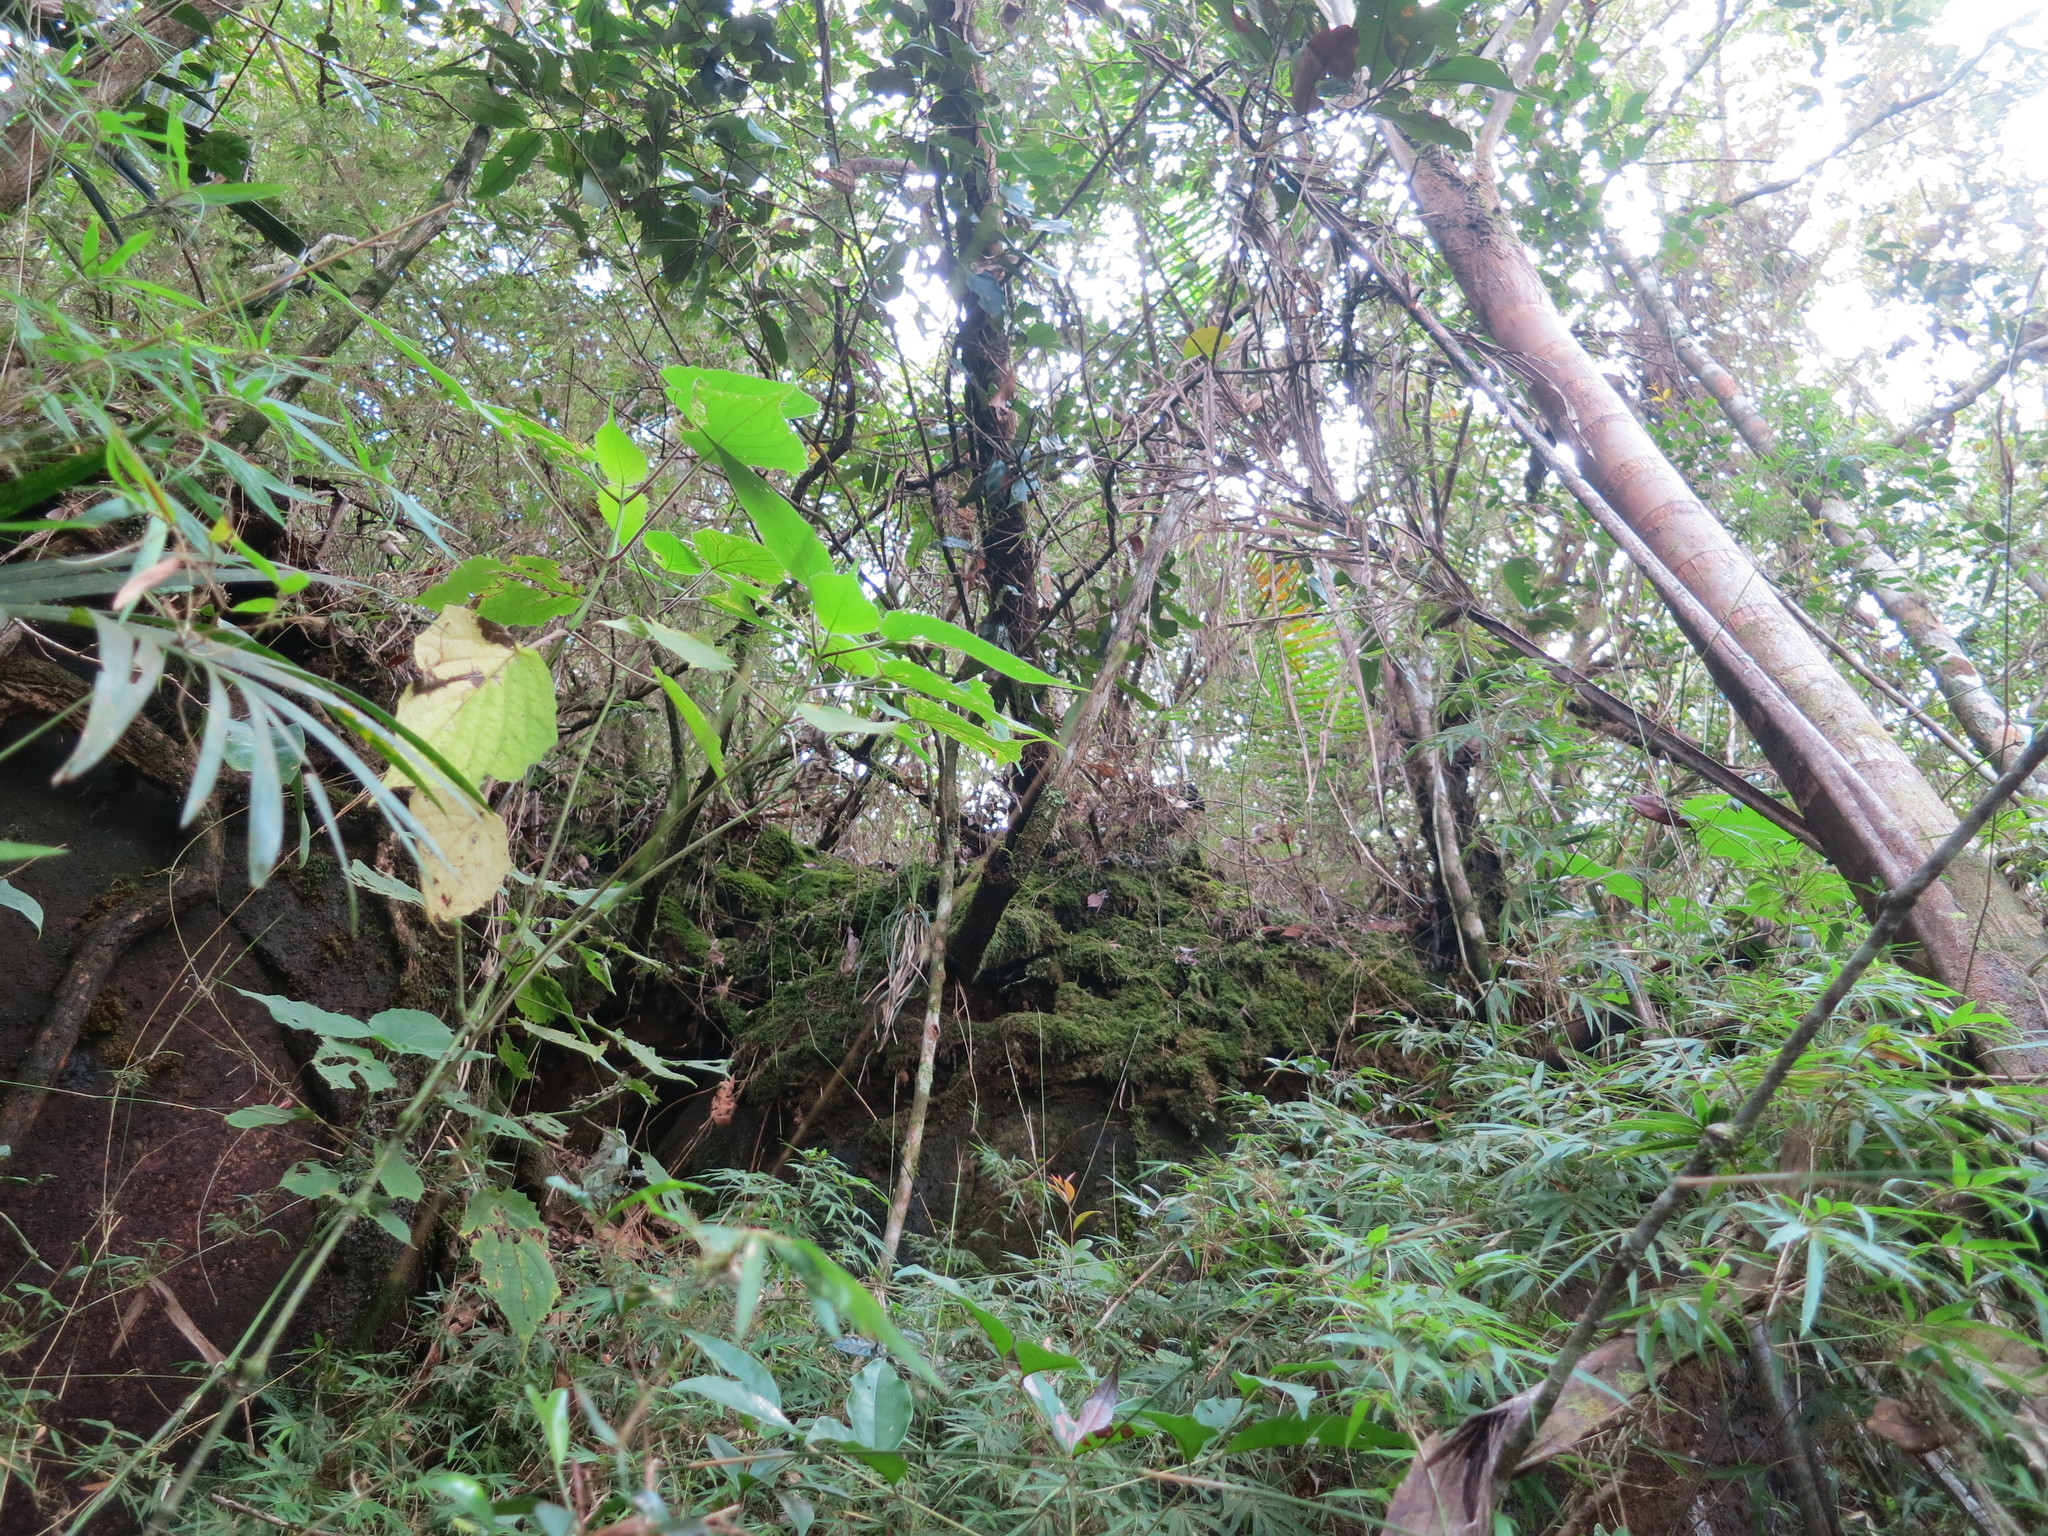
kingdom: Plantae
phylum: Tracheophyta
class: Liliopsida
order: Poales
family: Poaceae
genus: Sirochloa
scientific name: Sirochloa parvifolia
